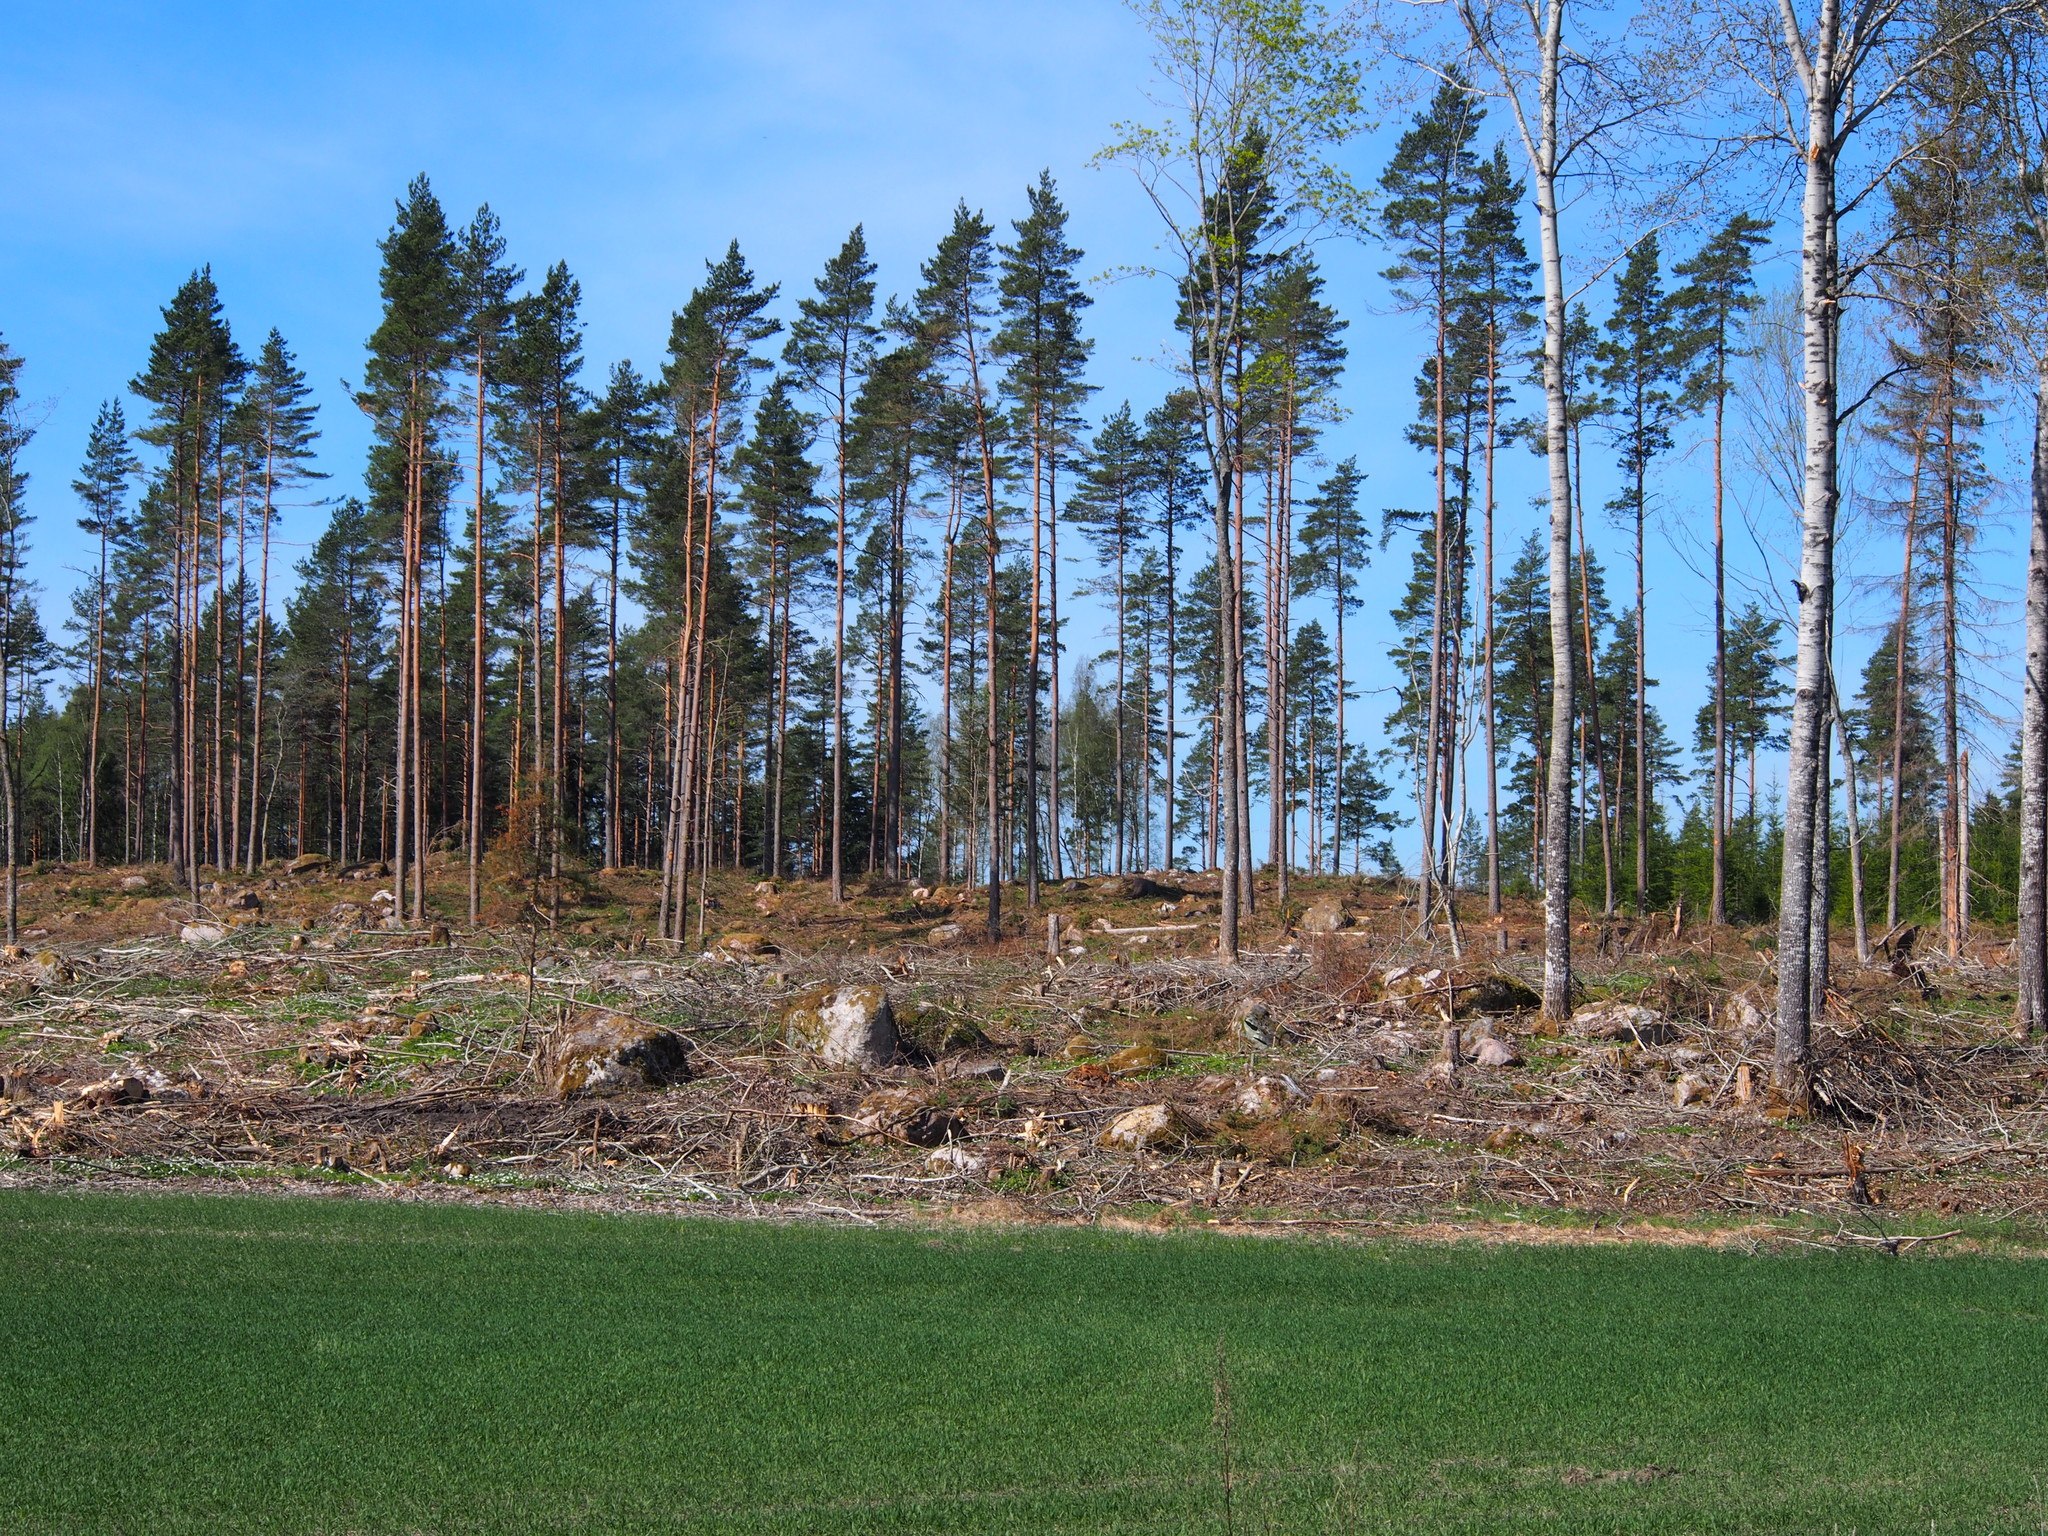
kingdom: Plantae
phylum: Tracheophyta
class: Magnoliopsida
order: Malpighiales
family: Salicaceae
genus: Populus
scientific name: Populus tremula
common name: European aspen
